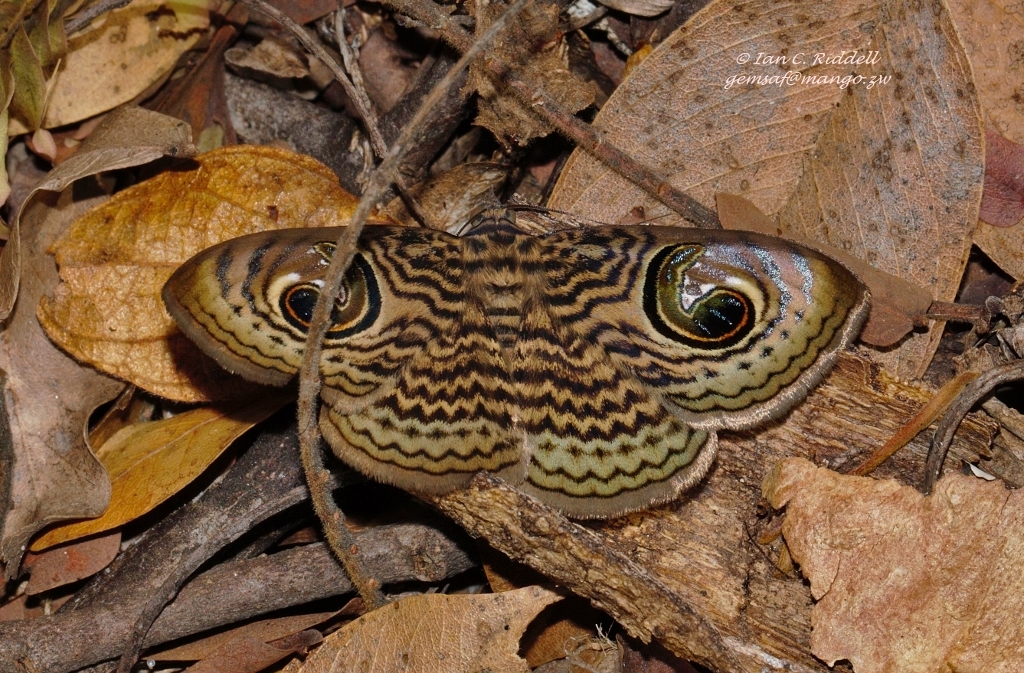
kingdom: Animalia
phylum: Arthropoda
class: Insecta
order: Lepidoptera
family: Erebidae
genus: Calliodes
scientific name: Calliodes pretiosissima
